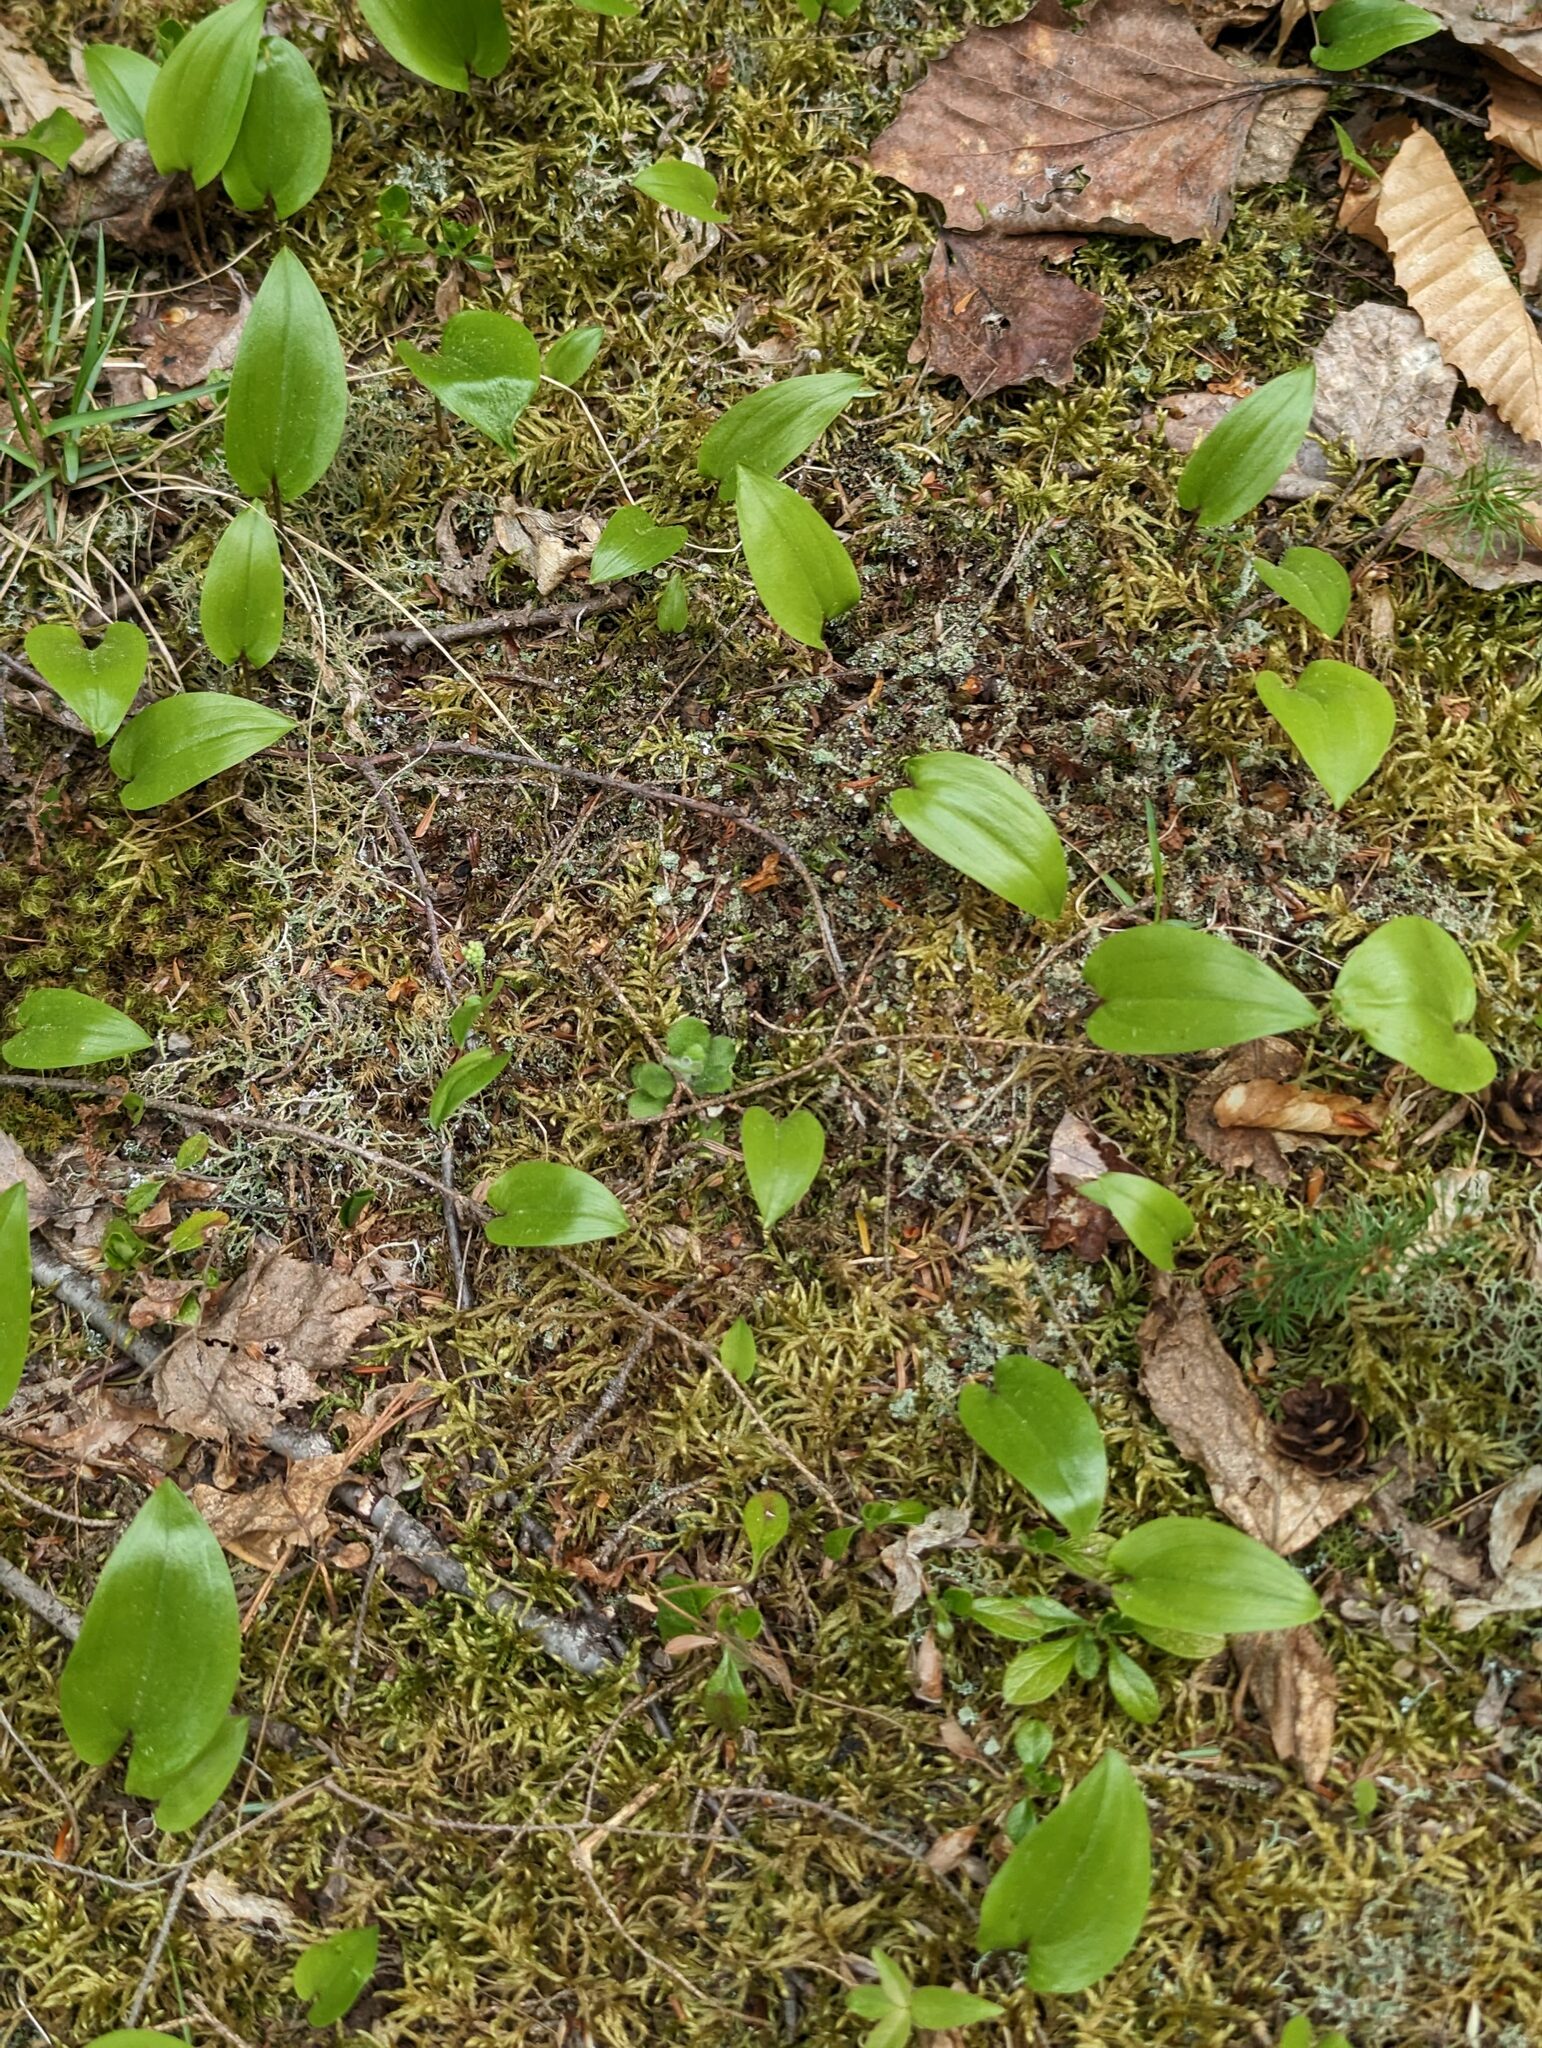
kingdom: Plantae
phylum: Tracheophyta
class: Liliopsida
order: Asparagales
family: Asparagaceae
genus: Maianthemum
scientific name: Maianthemum canadense
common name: False lily-of-the-valley
